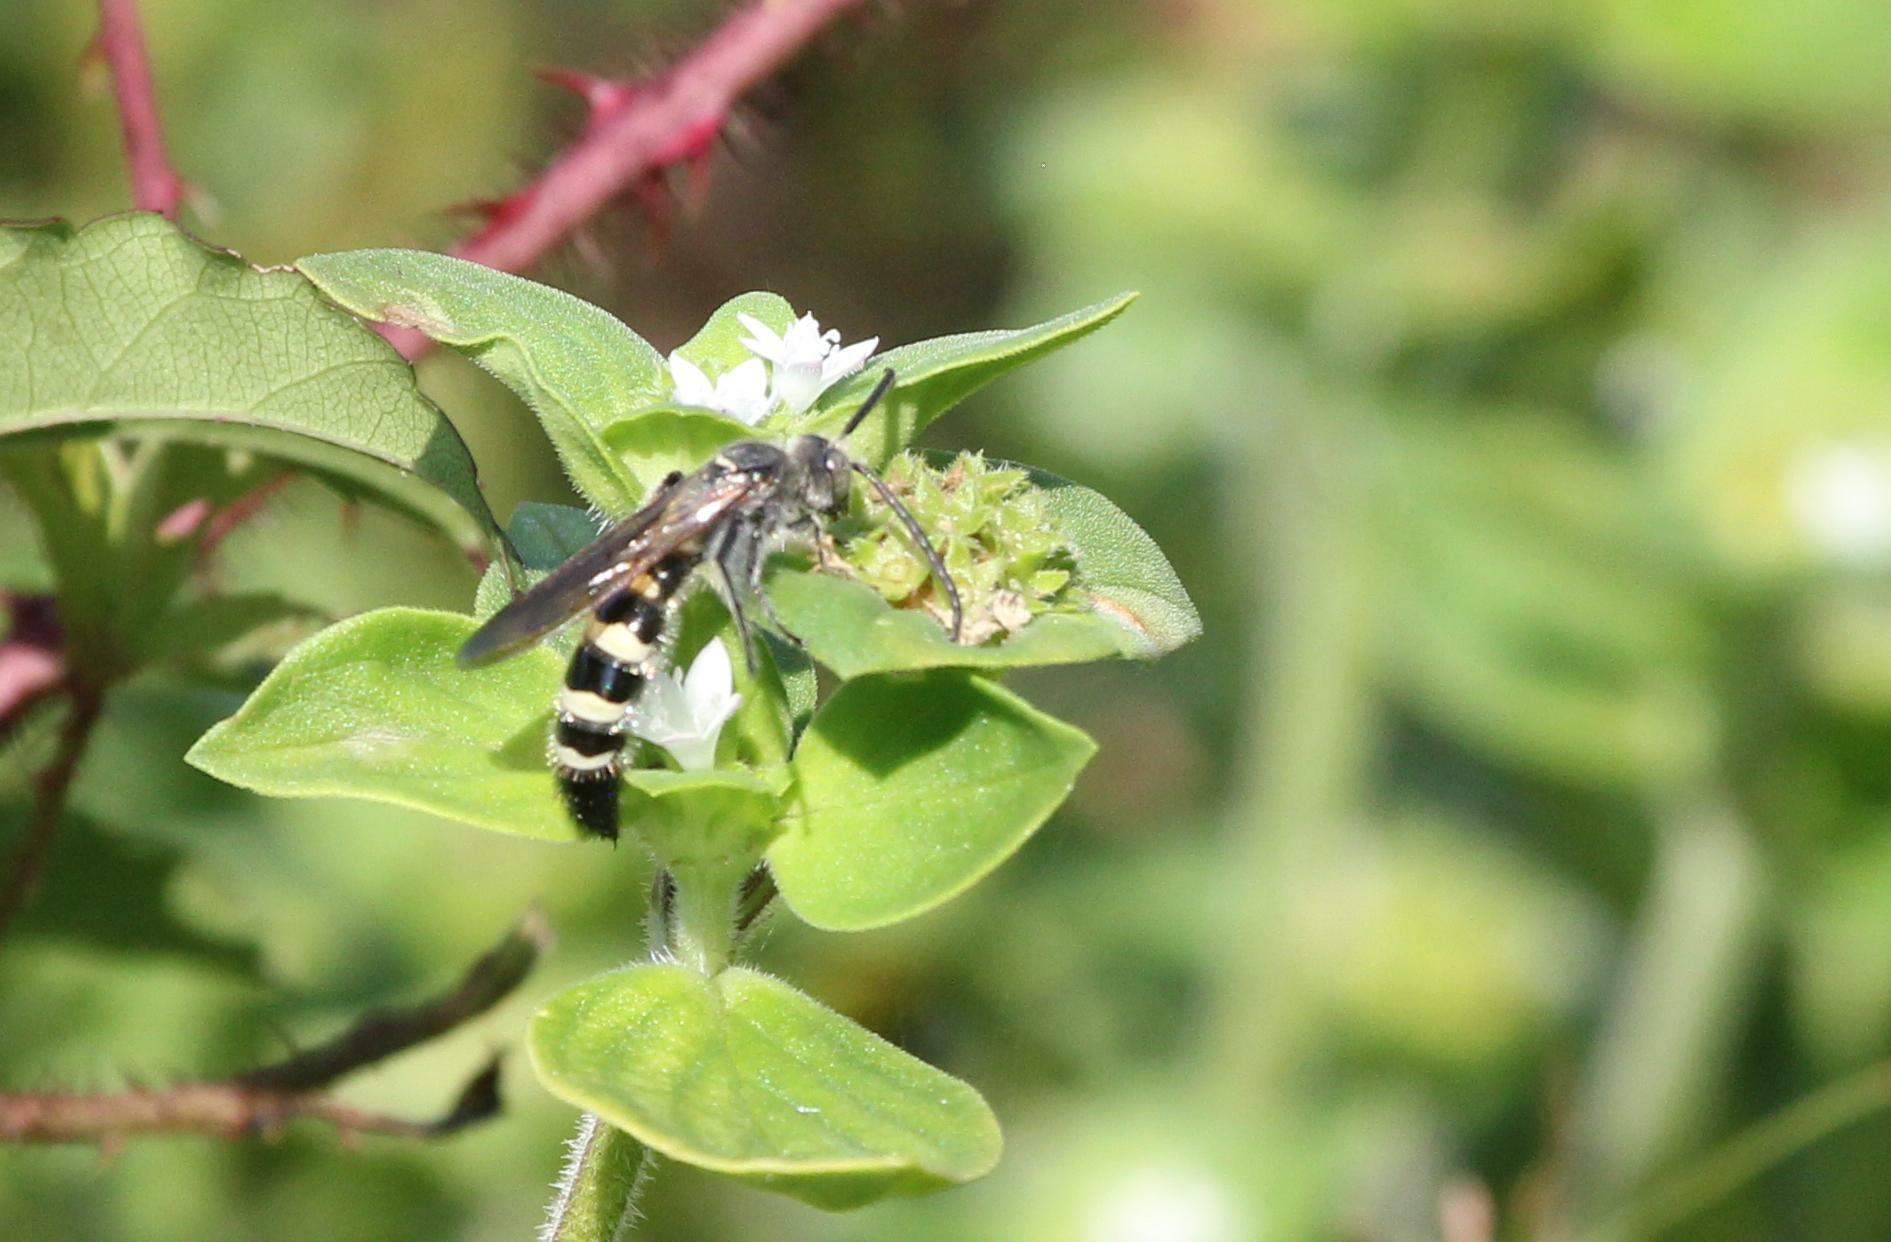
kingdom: Animalia
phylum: Arthropoda
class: Insecta
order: Hymenoptera
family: Scoliidae
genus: Dielis
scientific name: Dielis
